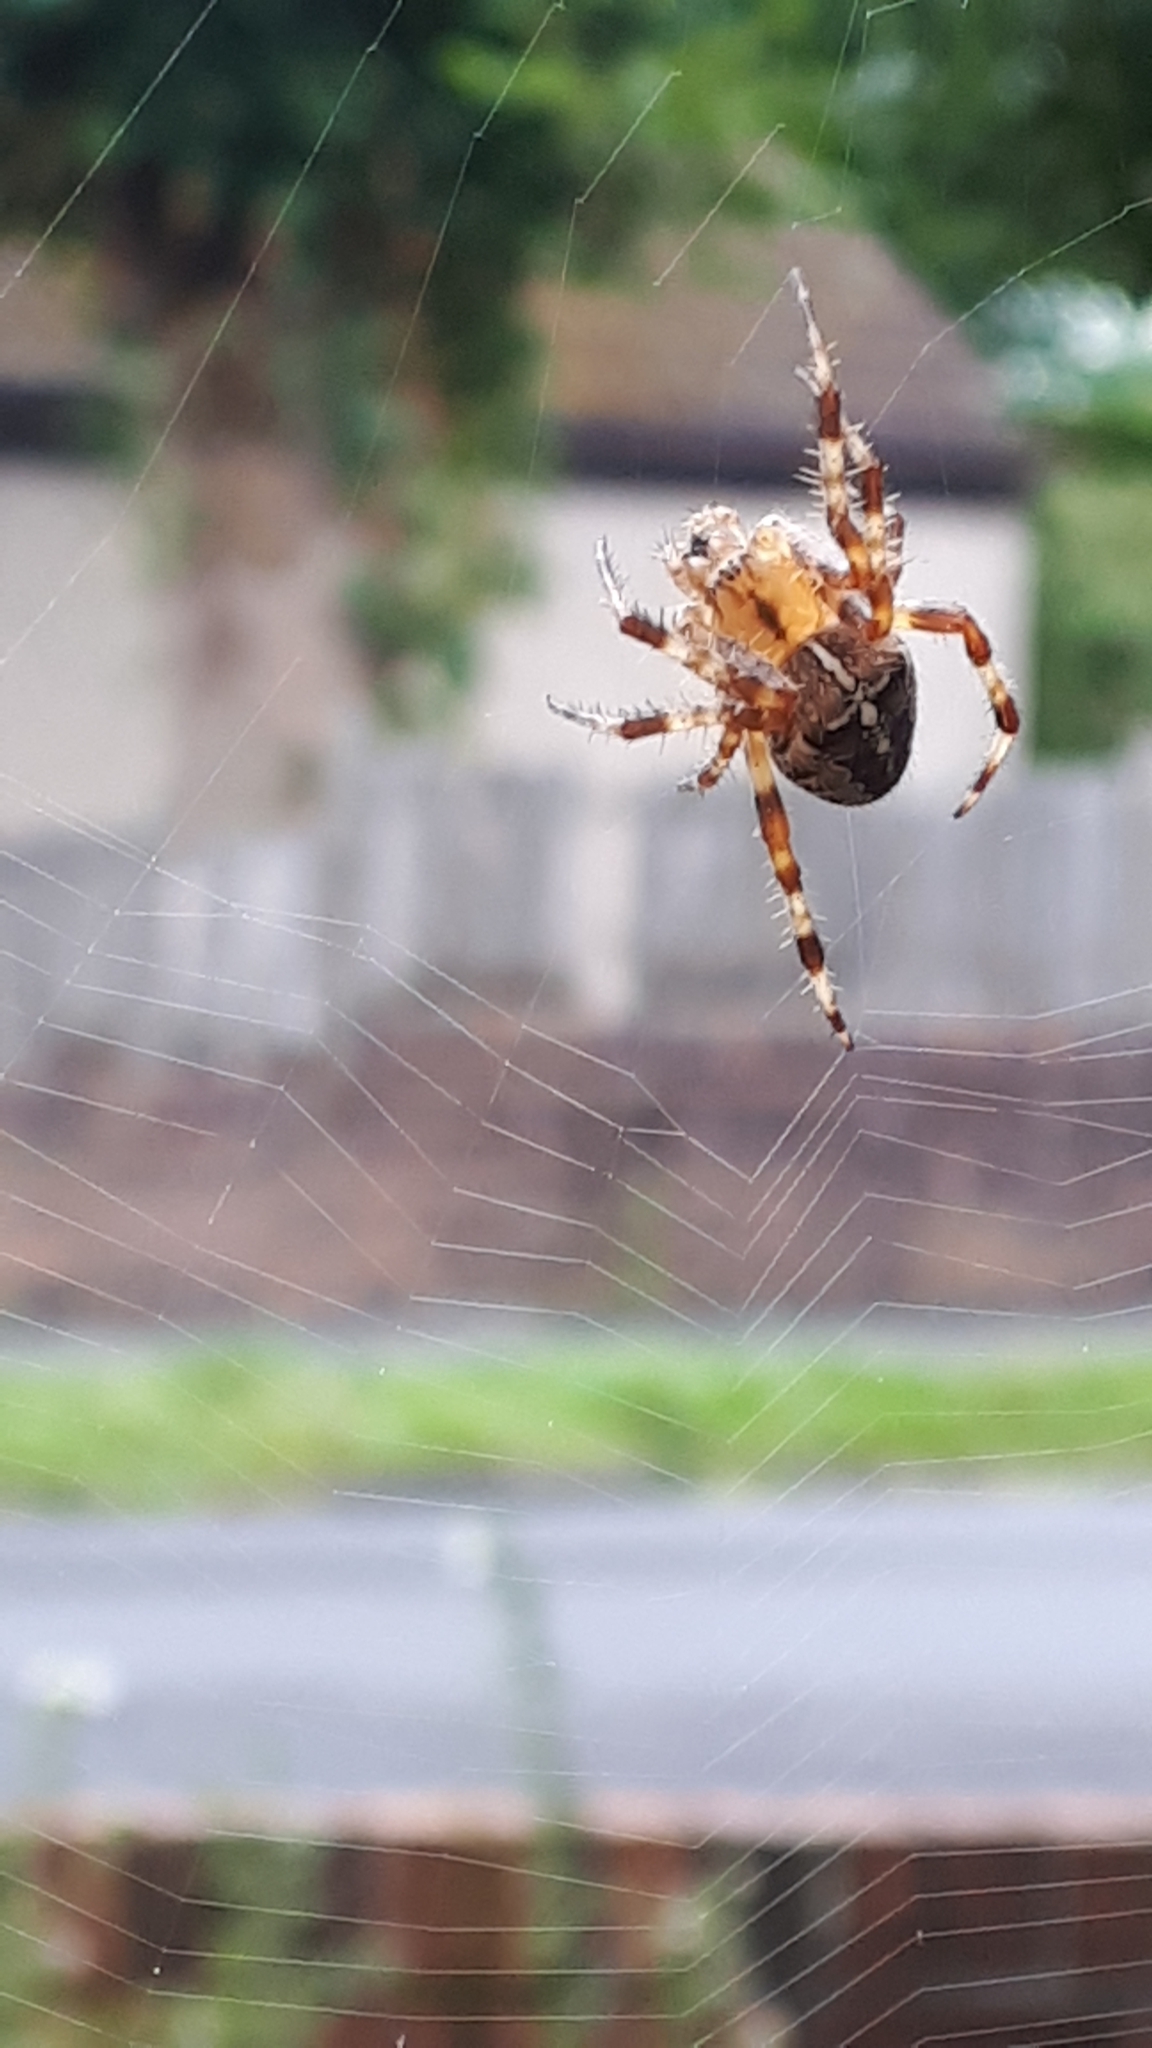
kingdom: Animalia
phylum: Arthropoda
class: Arachnida
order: Araneae
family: Araneidae
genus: Araneus
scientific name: Araneus diadematus
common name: Cross orbweaver
